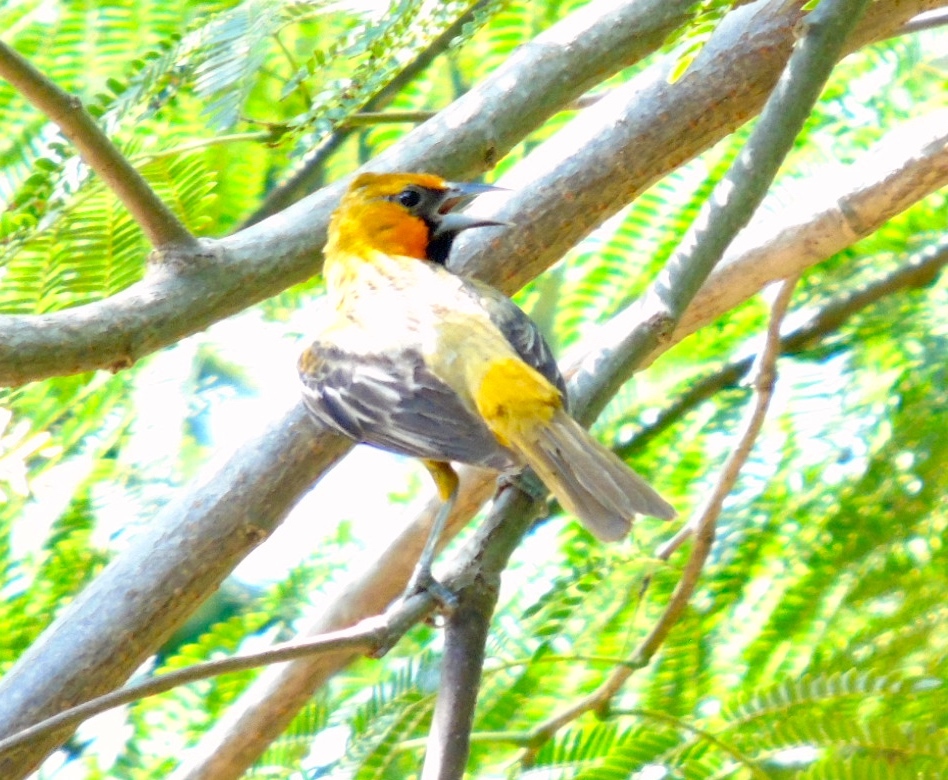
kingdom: Animalia
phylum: Chordata
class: Aves
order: Passeriformes
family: Icteridae
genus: Icterus
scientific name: Icterus pustulatus
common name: Streak-backed oriole
